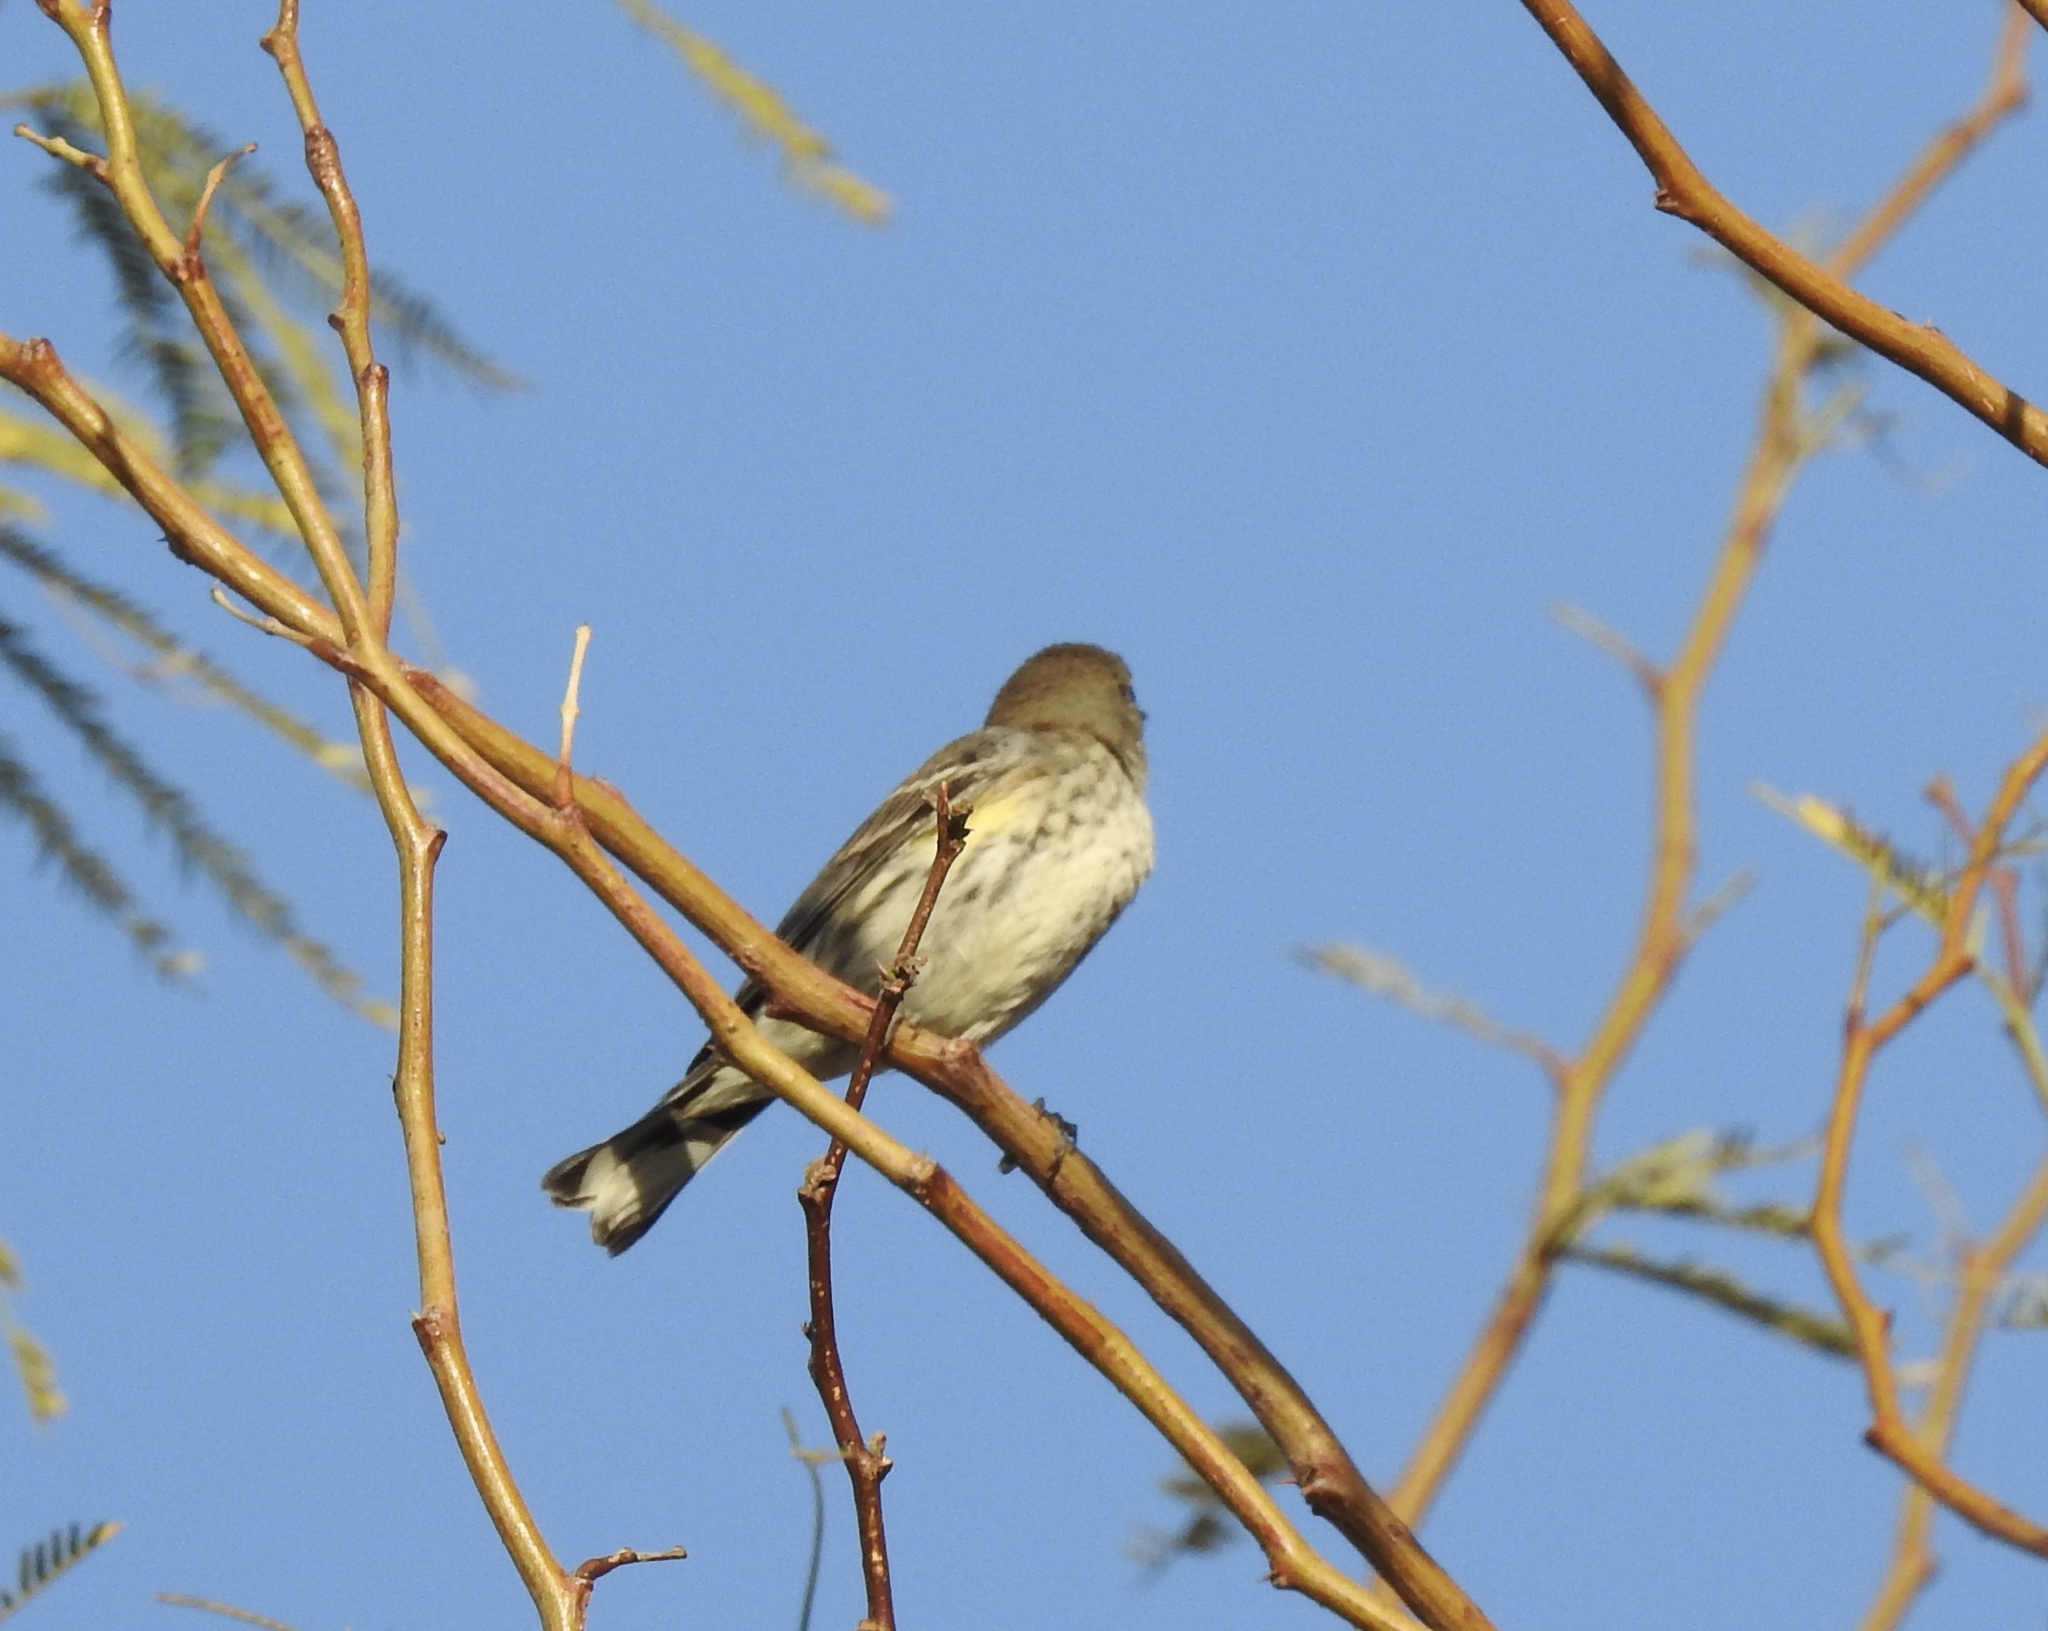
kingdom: Animalia
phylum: Chordata
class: Aves
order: Passeriformes
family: Parulidae
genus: Setophaga
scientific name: Setophaga coronata
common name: Myrtle warbler
